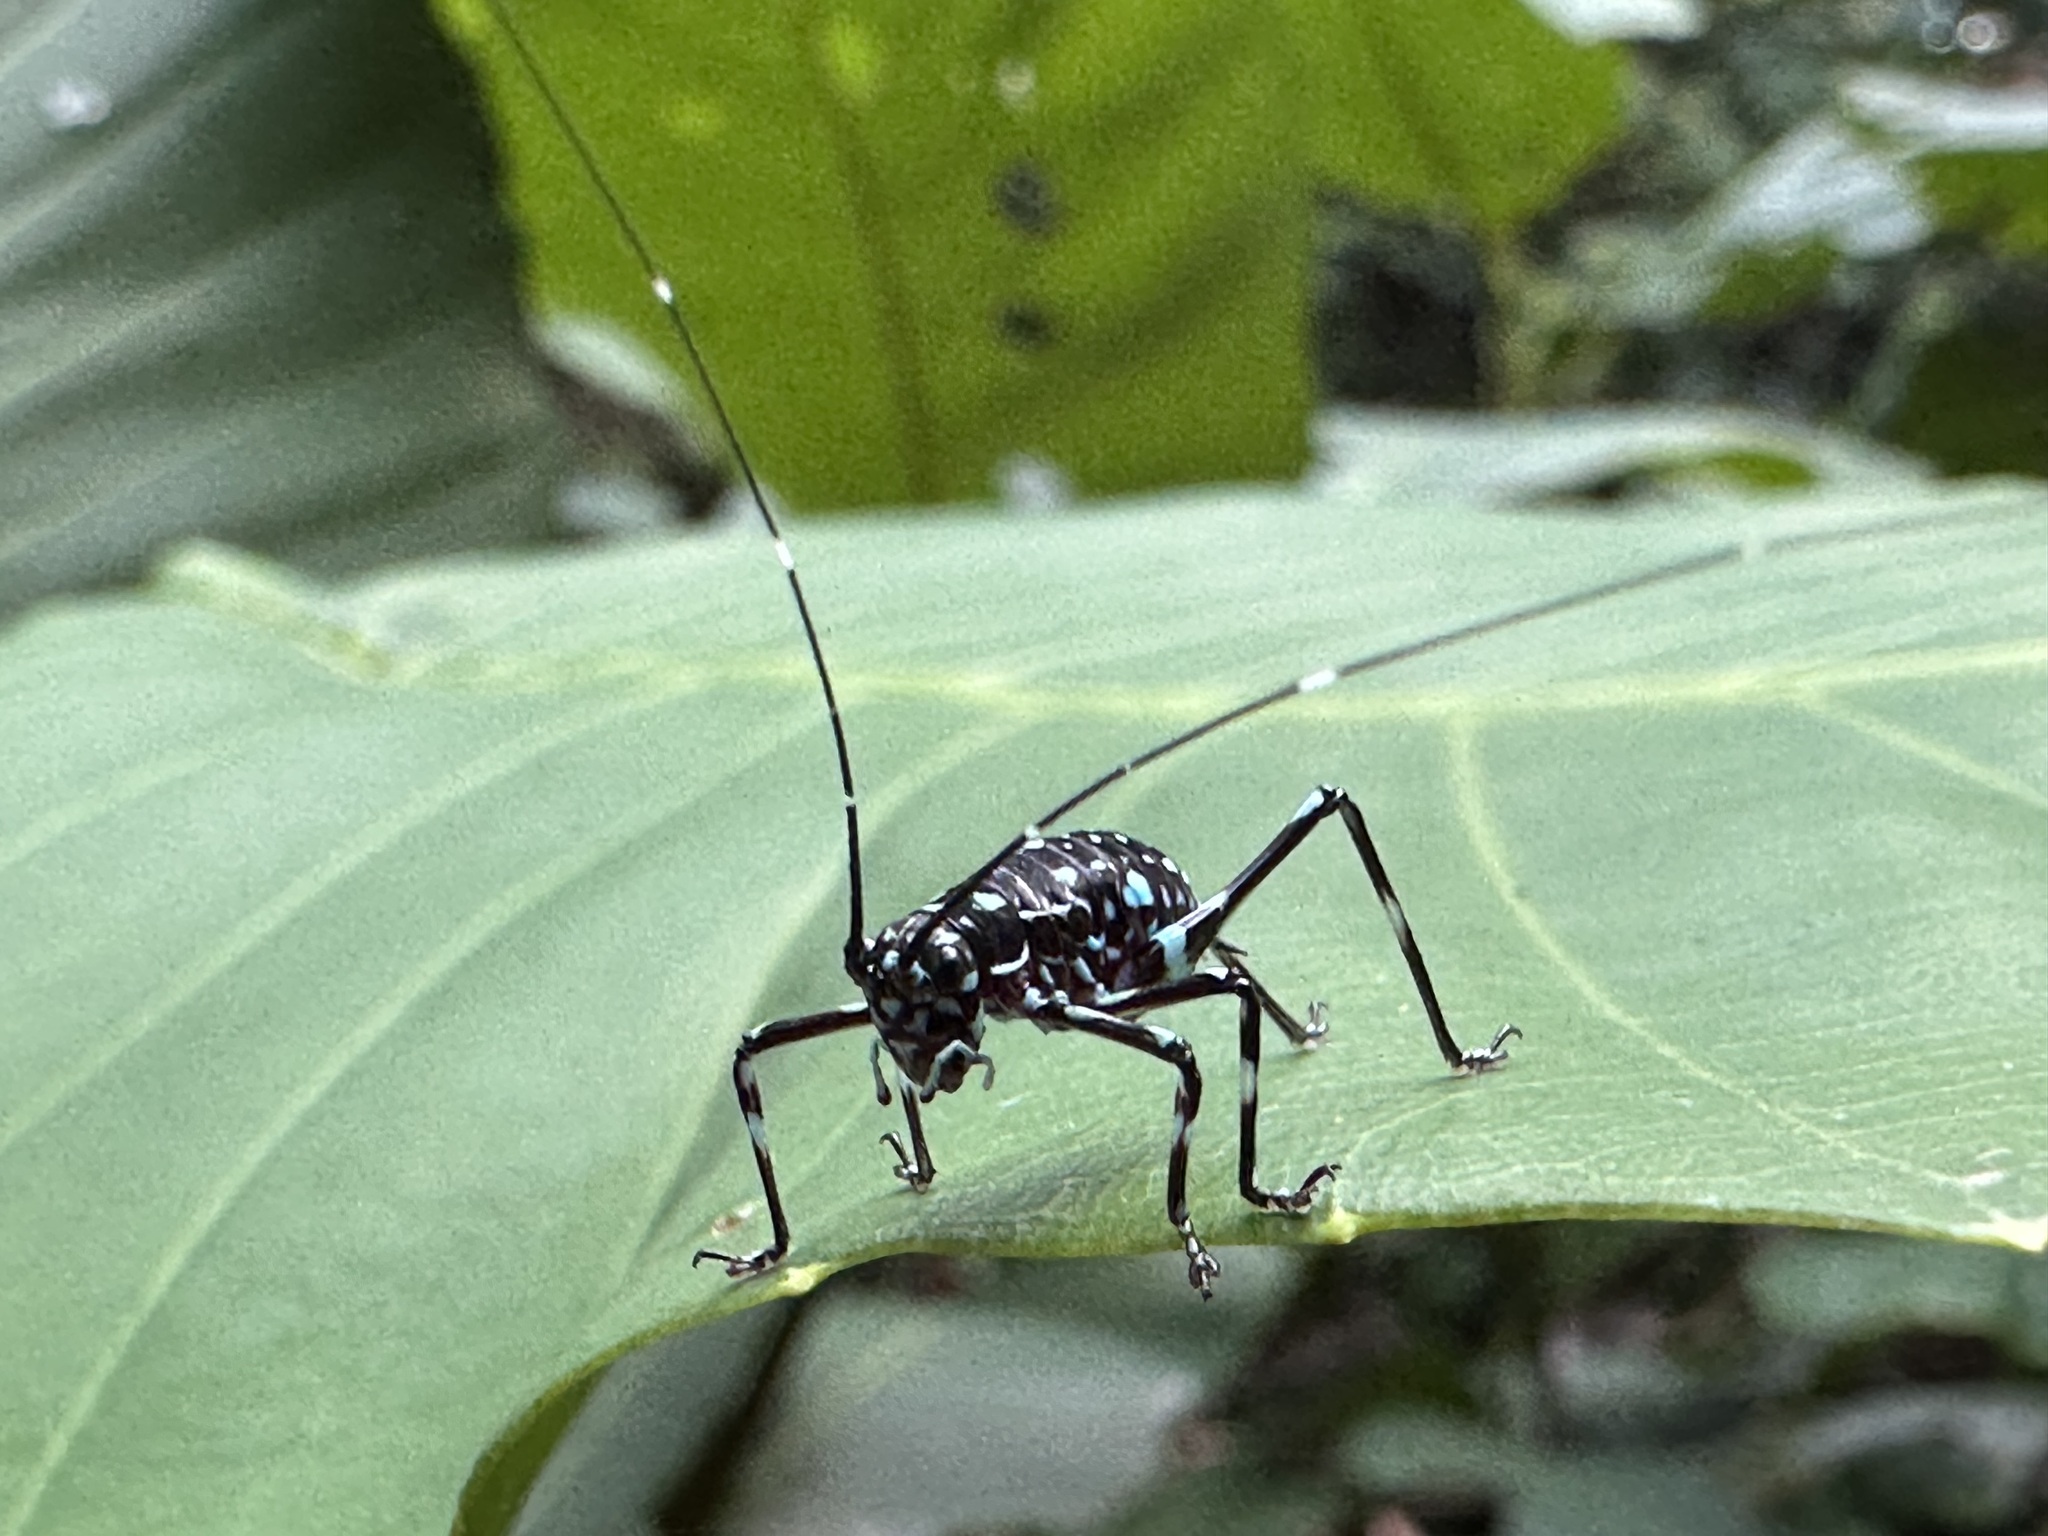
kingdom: Animalia
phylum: Arthropoda
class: Insecta
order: Orthoptera
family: Tettigoniidae
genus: Scambophyllum
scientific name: Scambophyllum sanguinolentum
